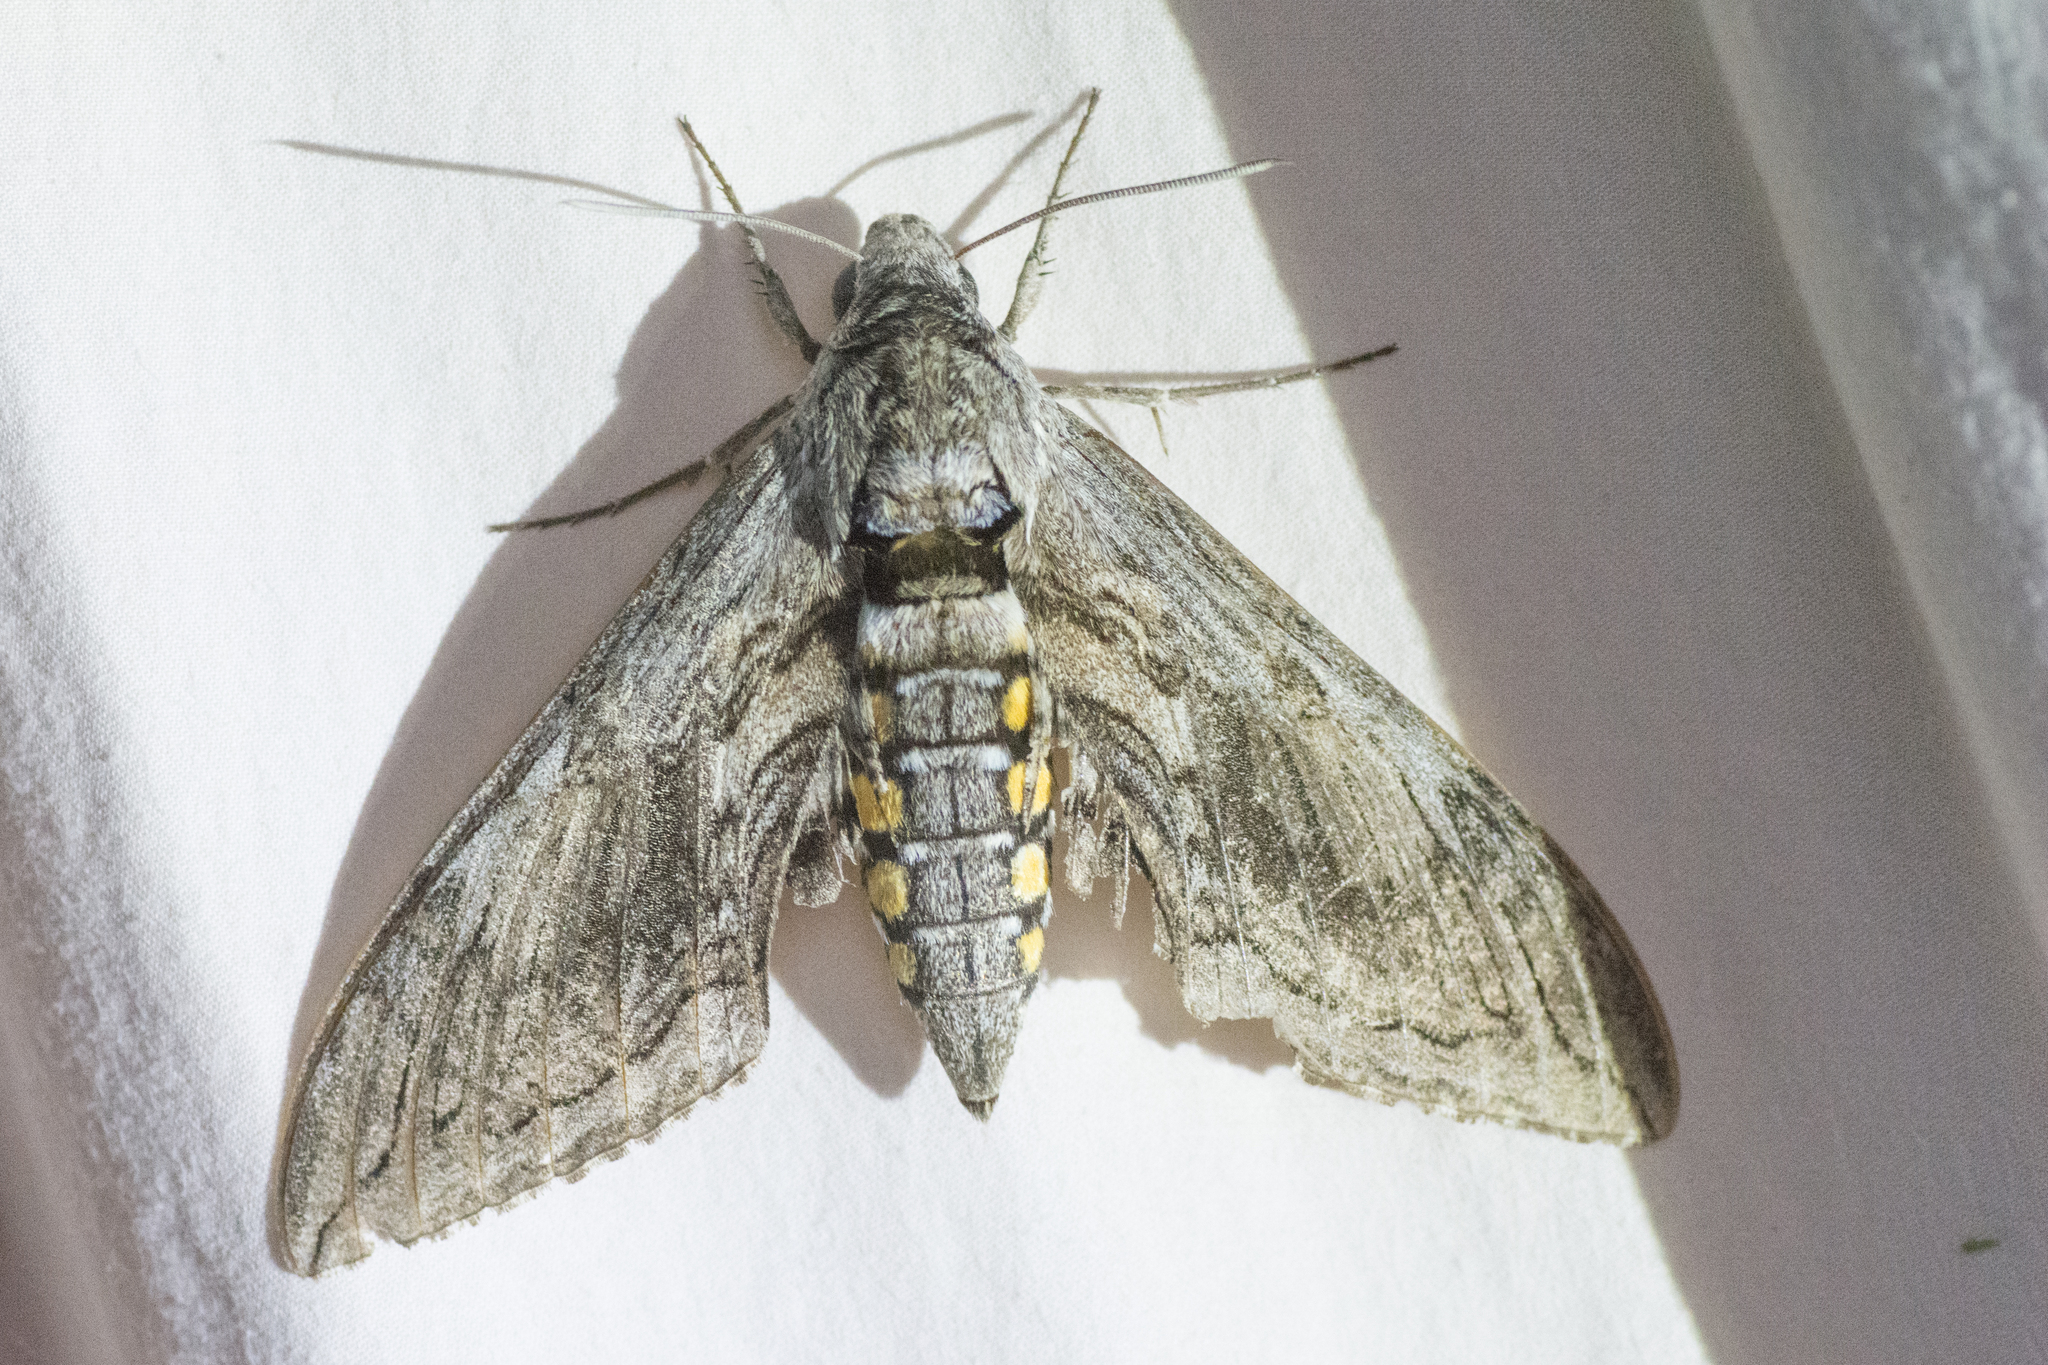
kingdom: Animalia
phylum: Arthropoda
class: Insecta
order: Lepidoptera
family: Sphingidae
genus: Manduca
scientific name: Manduca quinquemaculatus
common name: Five-spotted hawk-moth
